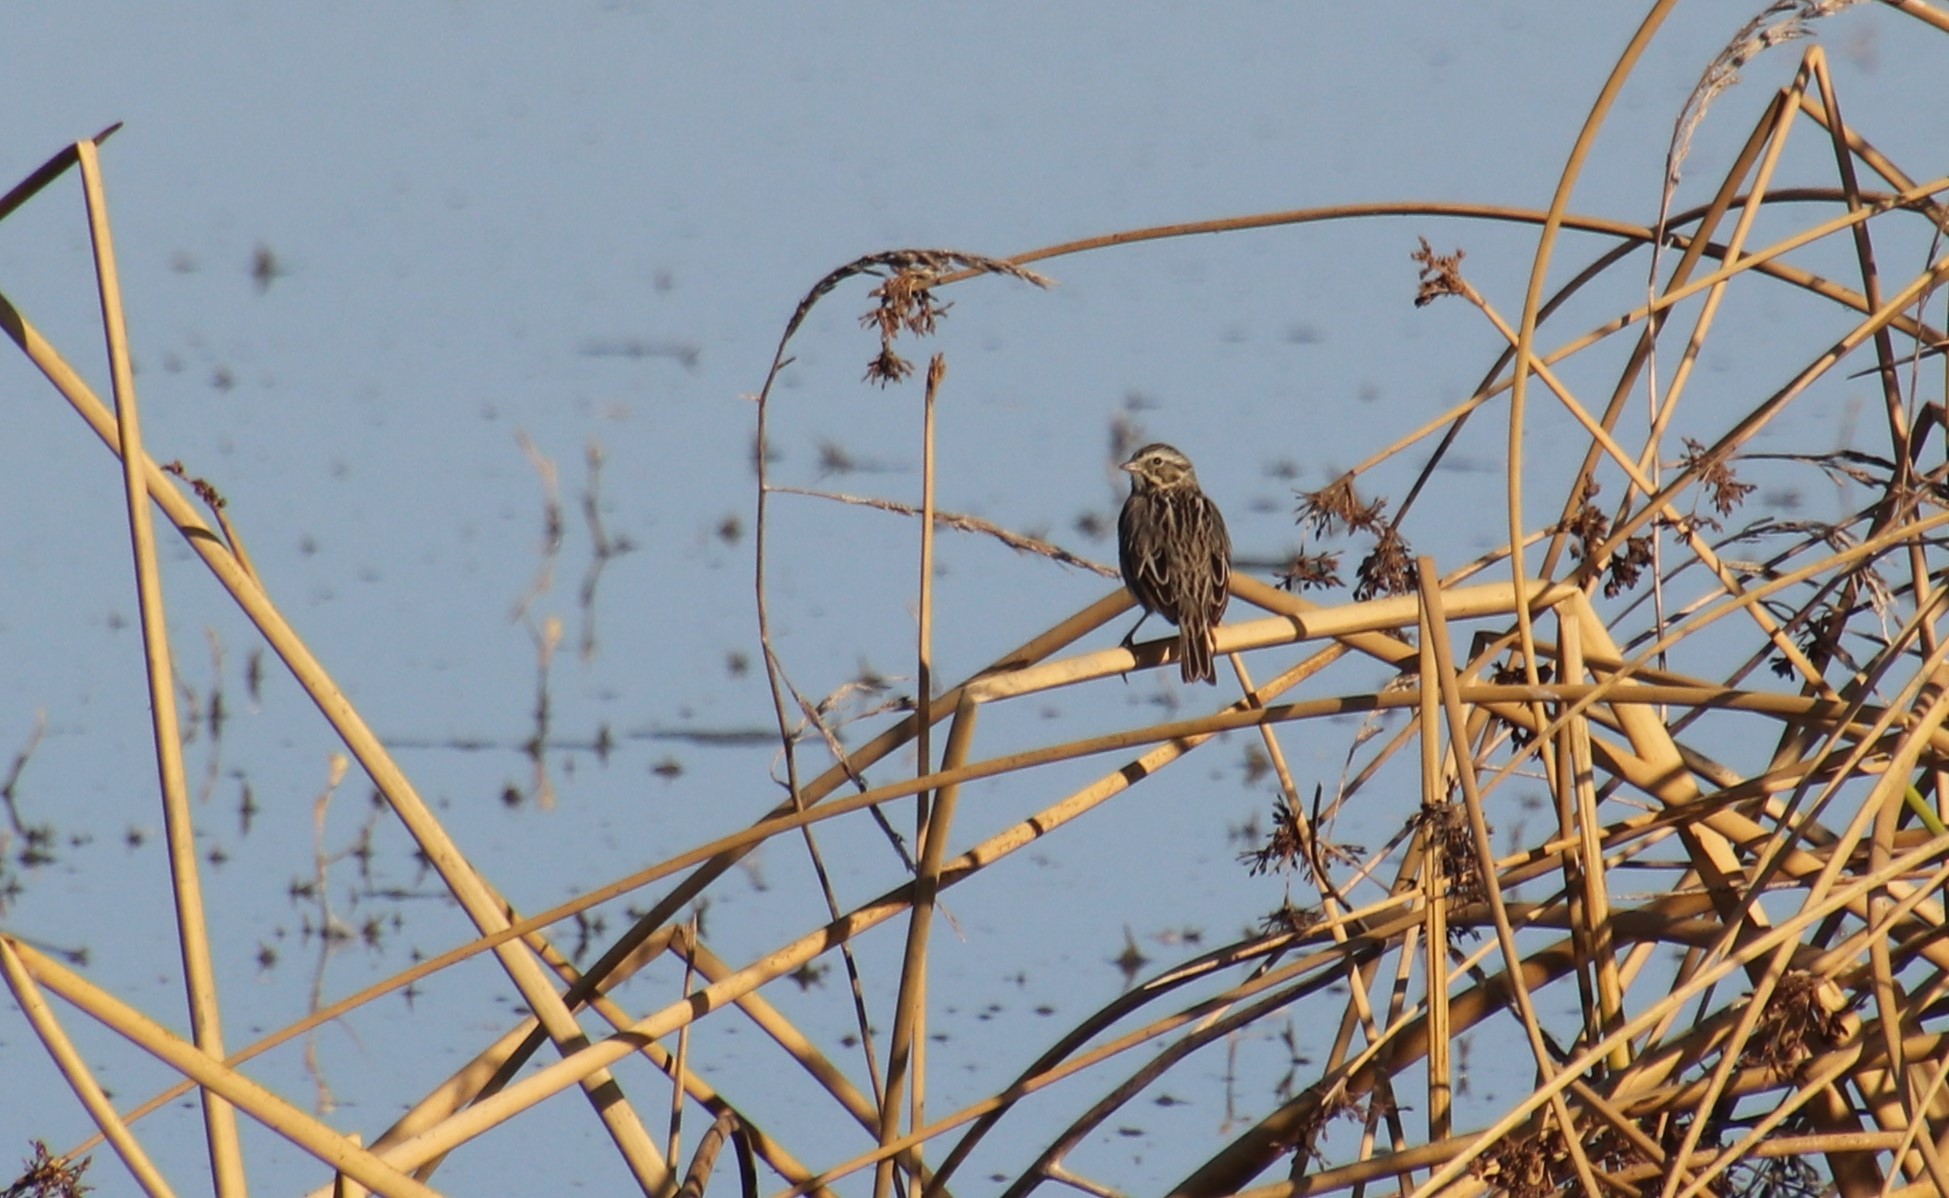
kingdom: Animalia
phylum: Chordata
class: Aves
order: Passeriformes
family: Passerellidae
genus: Passerculus
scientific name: Passerculus sandwichensis
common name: Savannah sparrow
